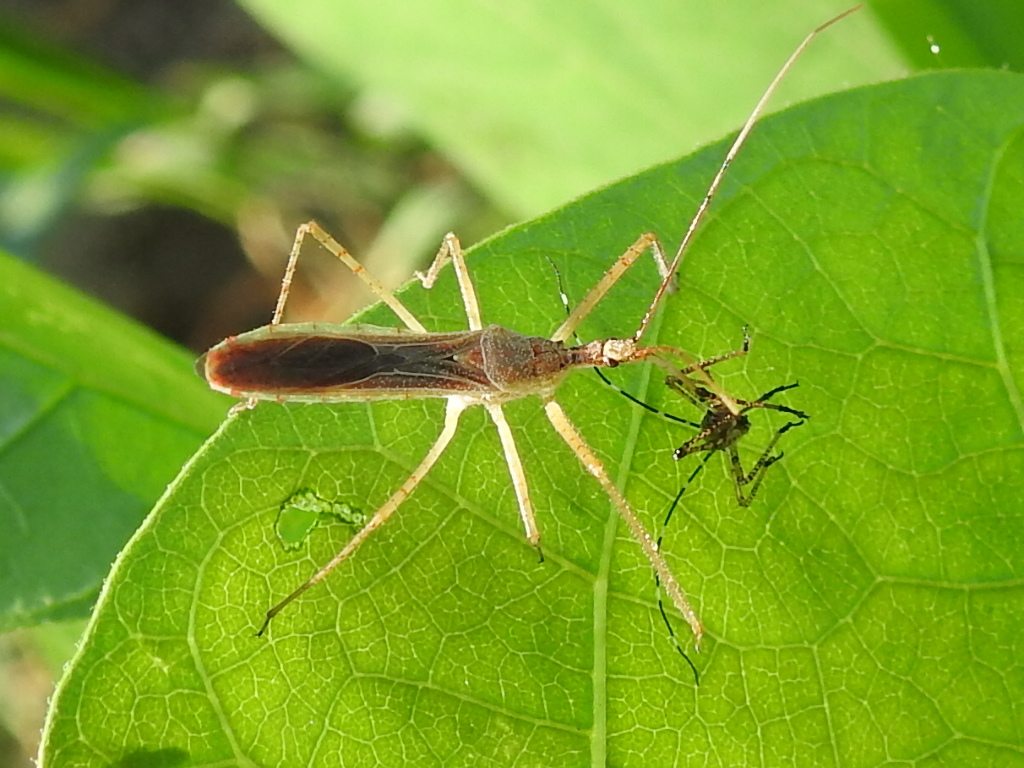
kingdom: Animalia
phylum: Arthropoda
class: Insecta
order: Hemiptera
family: Reduviidae
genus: Zelus
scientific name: Zelus cervicalis
